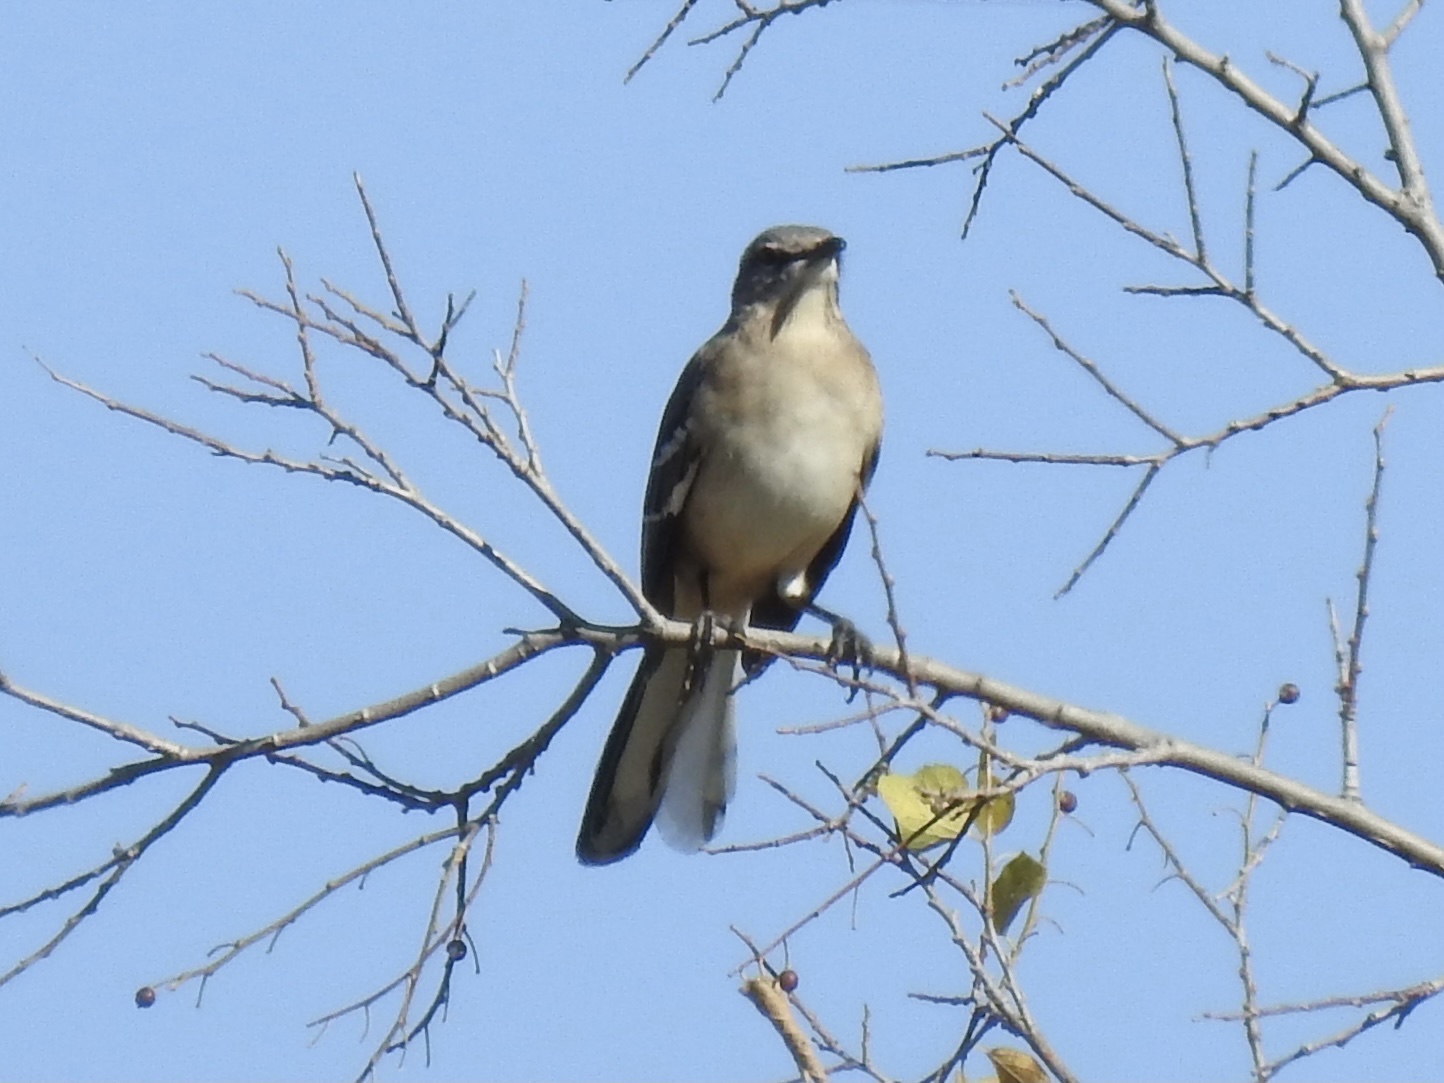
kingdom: Animalia
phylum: Chordata
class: Aves
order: Passeriformes
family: Mimidae
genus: Mimus
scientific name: Mimus polyglottos
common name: Northern mockingbird
